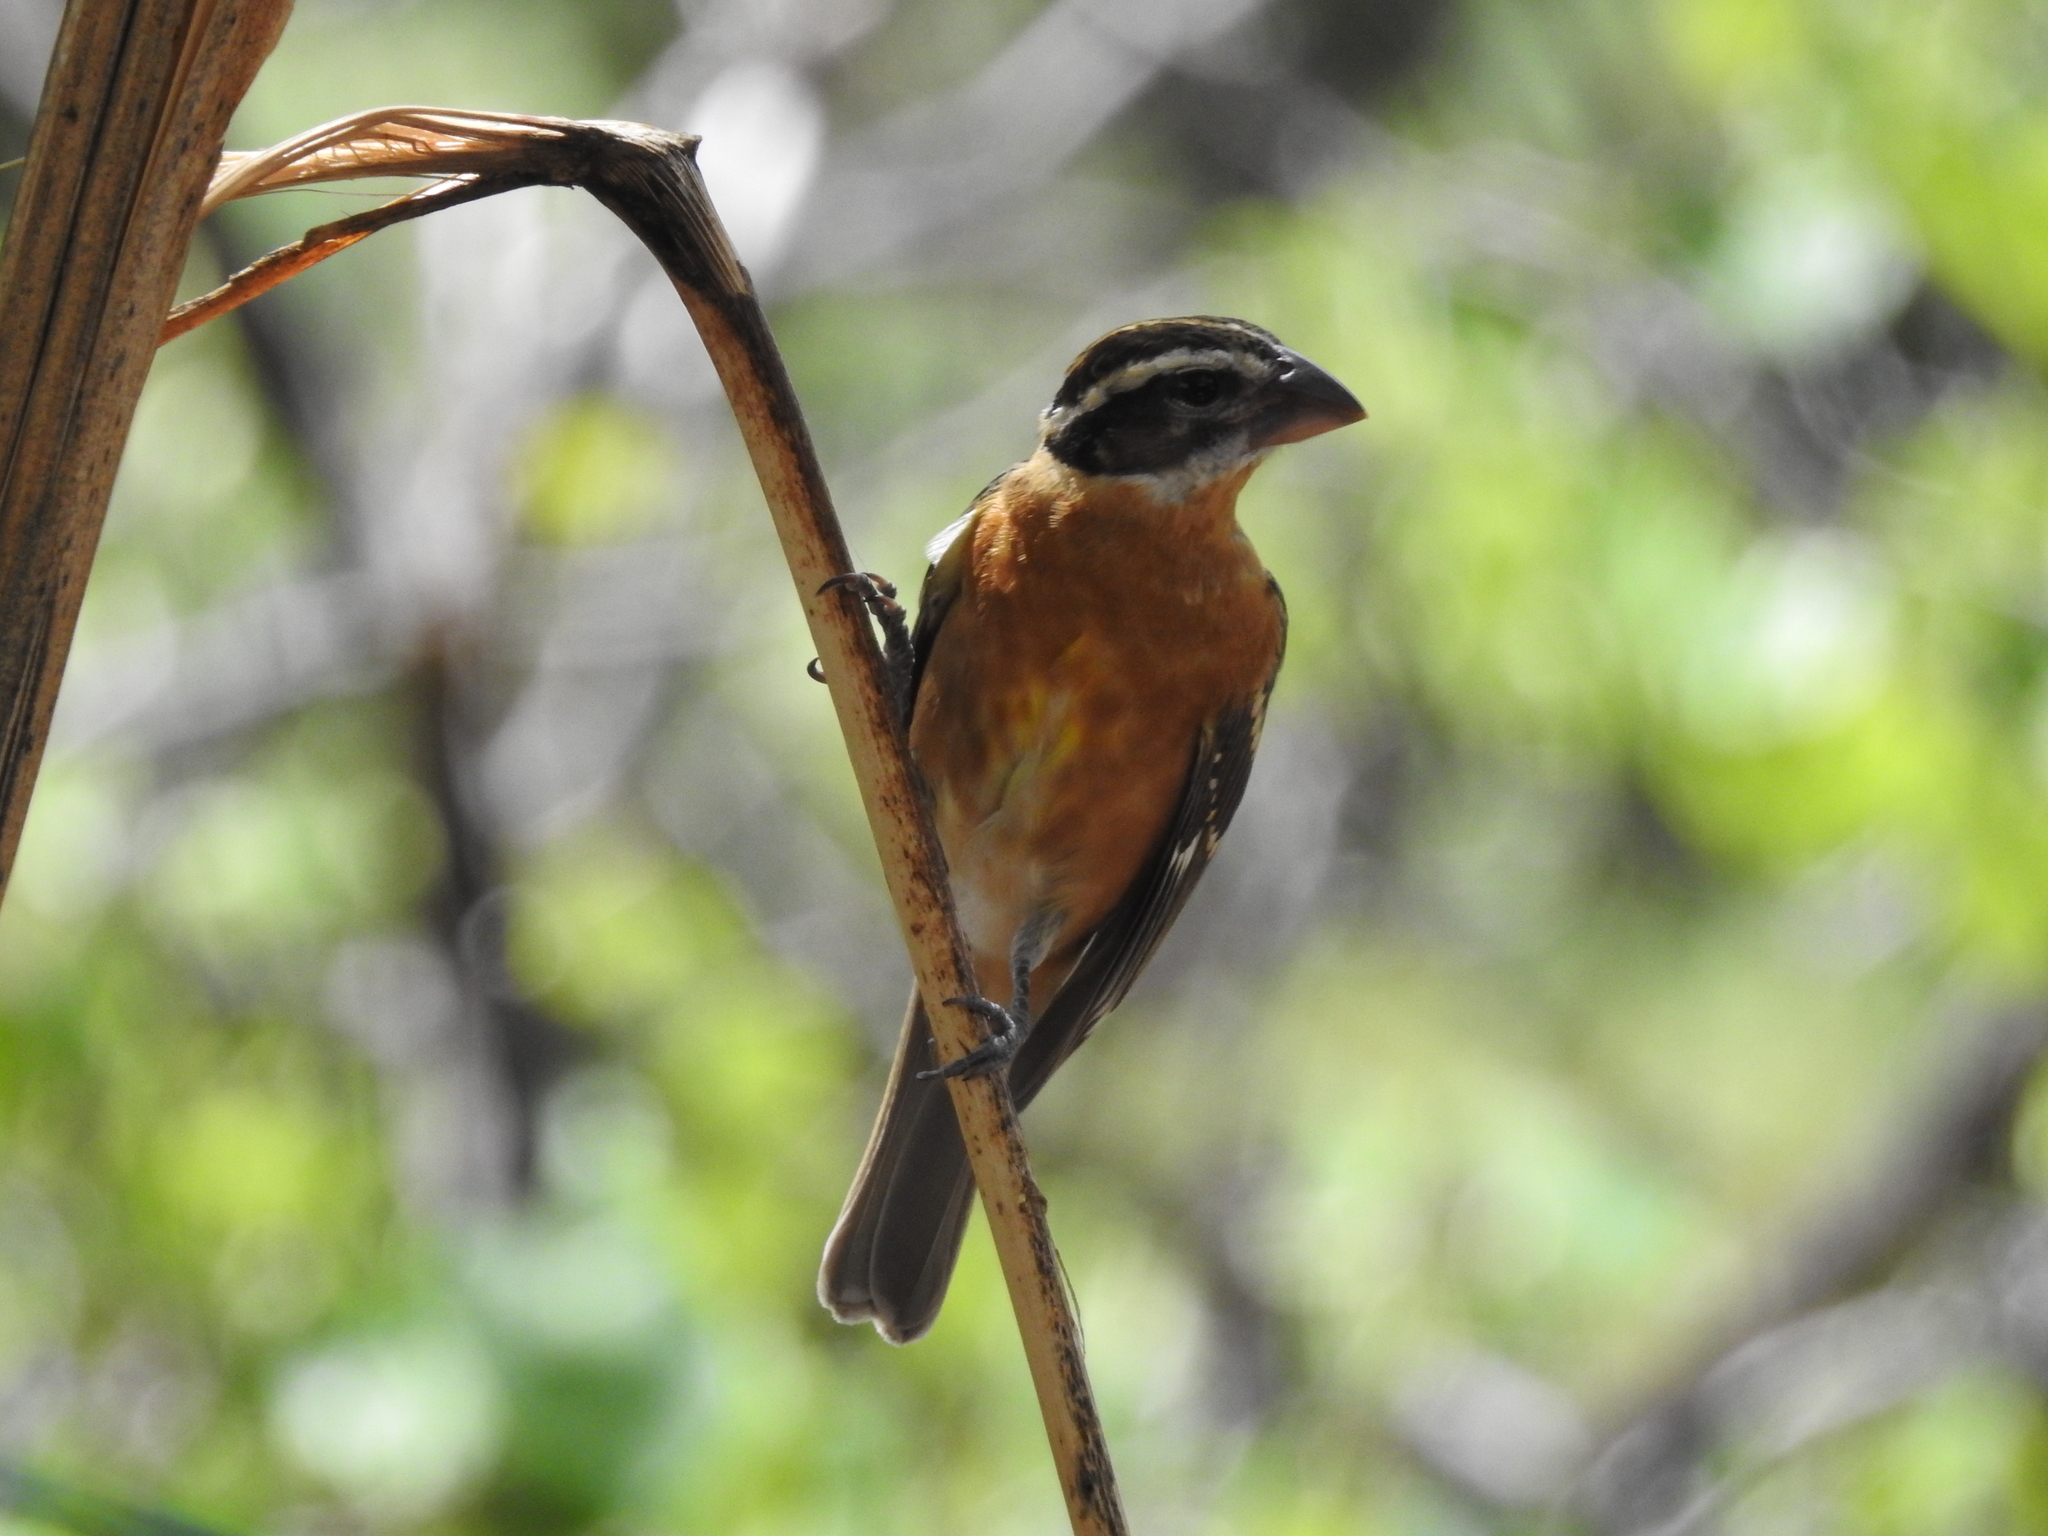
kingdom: Animalia
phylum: Chordata
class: Aves
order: Passeriformes
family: Cardinalidae
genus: Pheucticus
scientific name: Pheucticus melanocephalus
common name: Black-headed grosbeak
